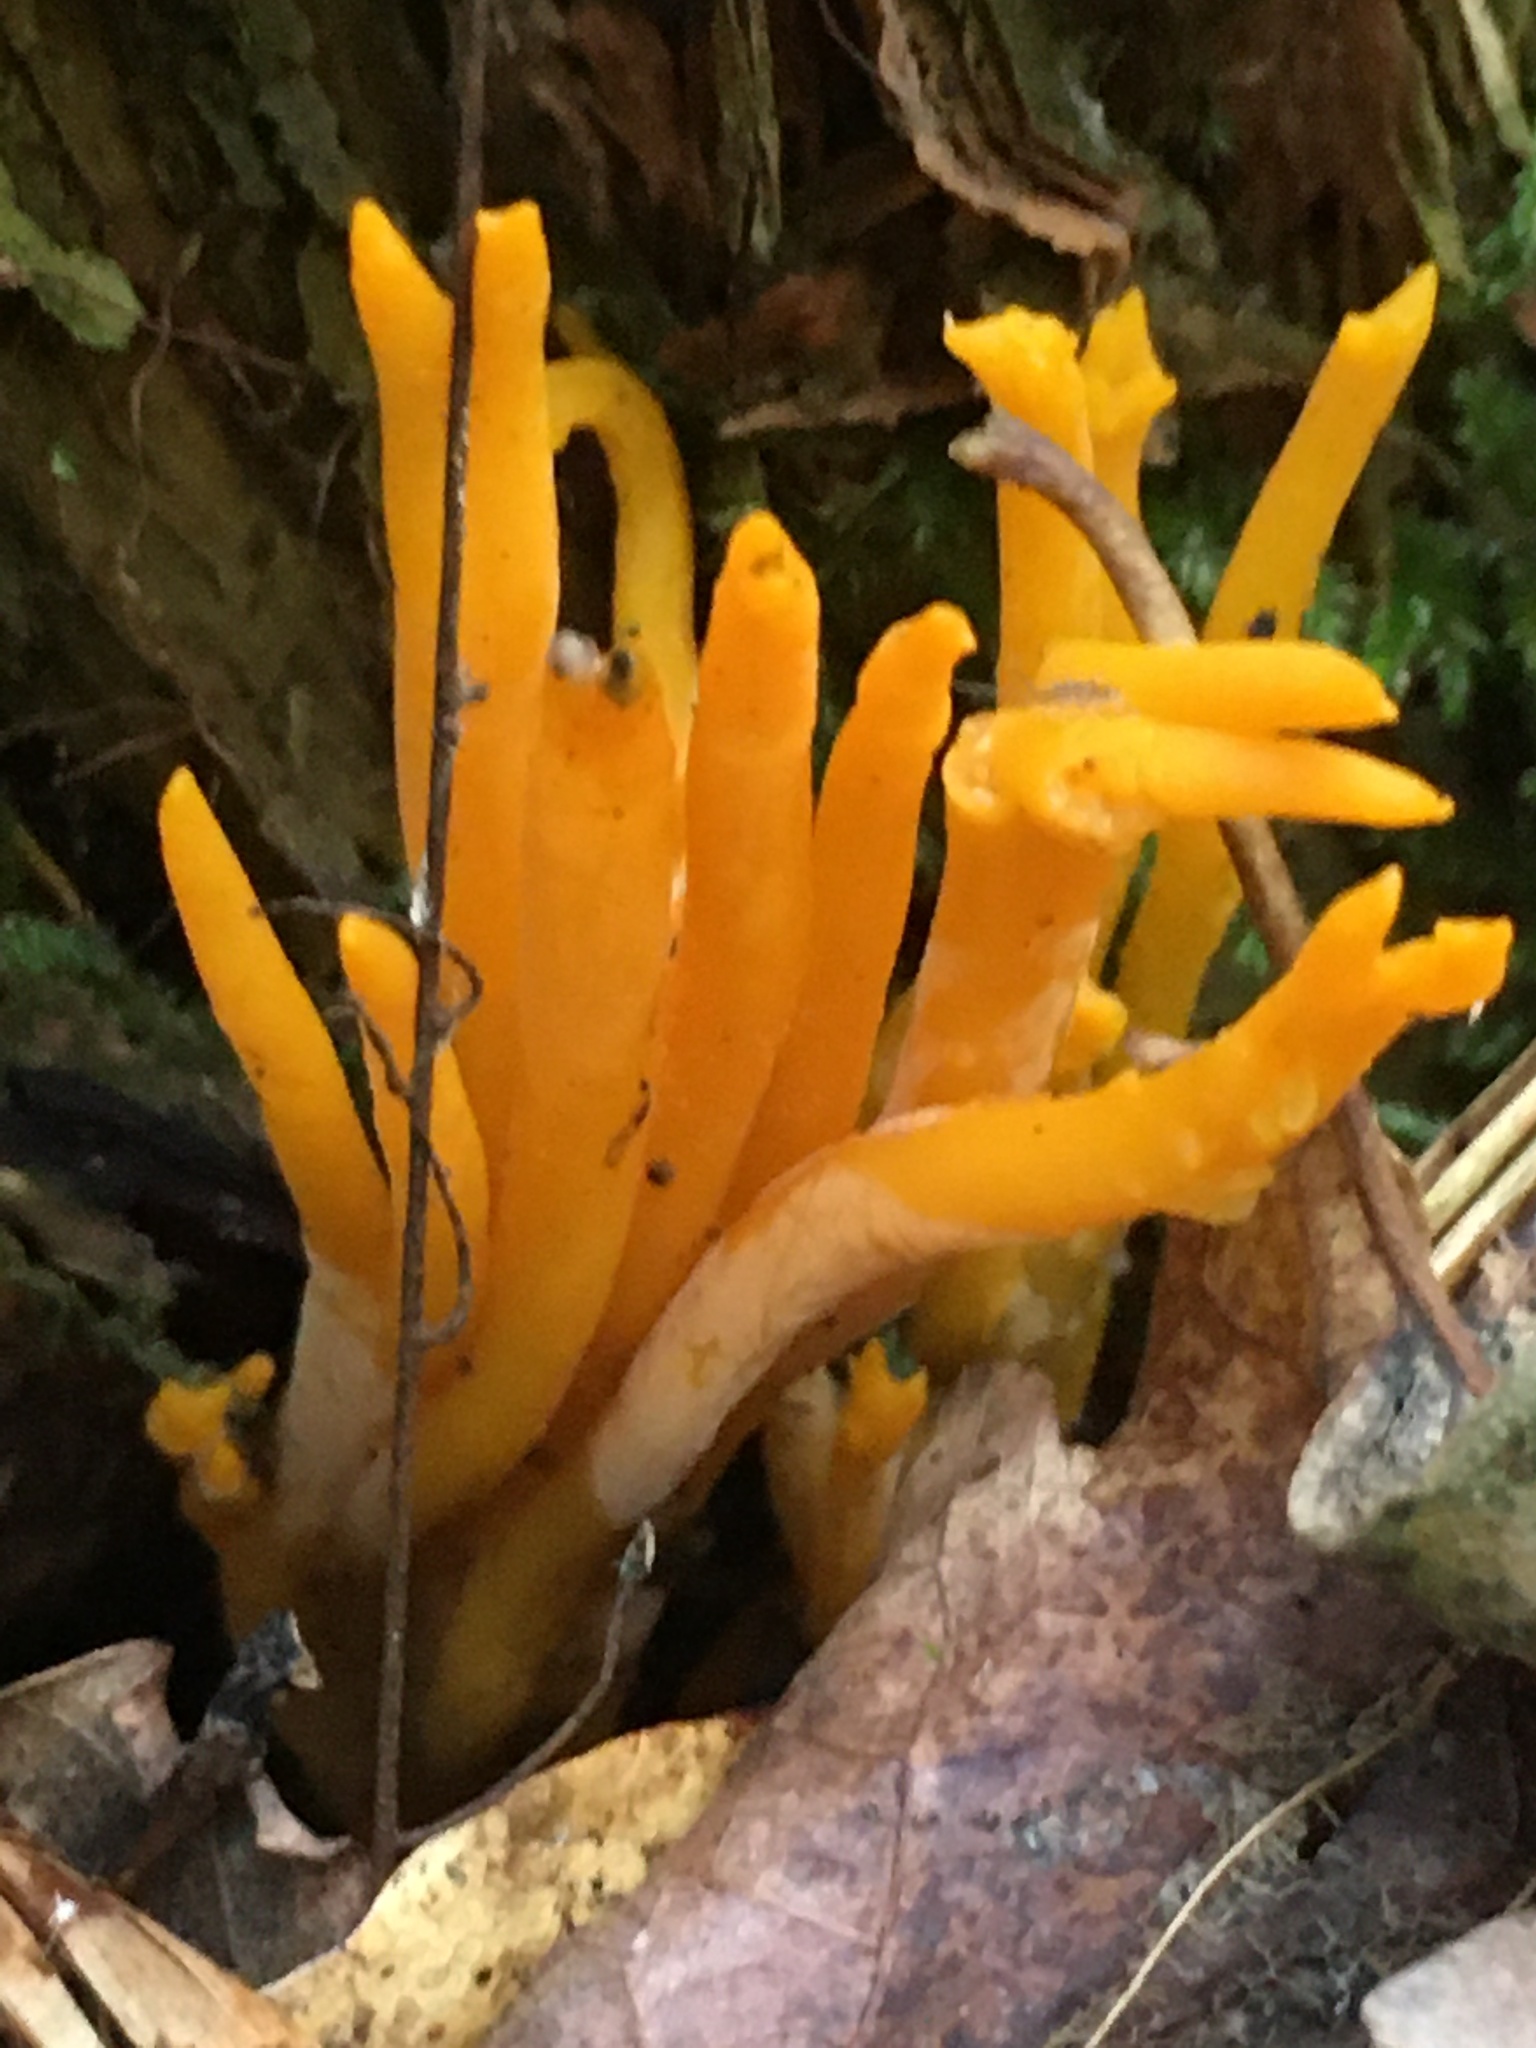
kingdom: Fungi
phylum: Basidiomycota
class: Dacrymycetes
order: Dacrymycetales
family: Dacrymycetaceae
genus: Calocera
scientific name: Calocera viscosa
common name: Yellow stagshorn
